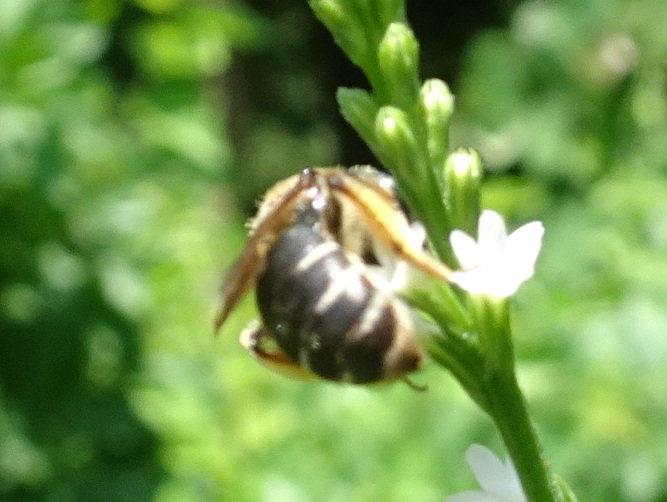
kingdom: Animalia
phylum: Arthropoda
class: Insecta
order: Hymenoptera
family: Andrenidae
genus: Andrena
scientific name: Andrena wilkella
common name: Wilke's mining bee
